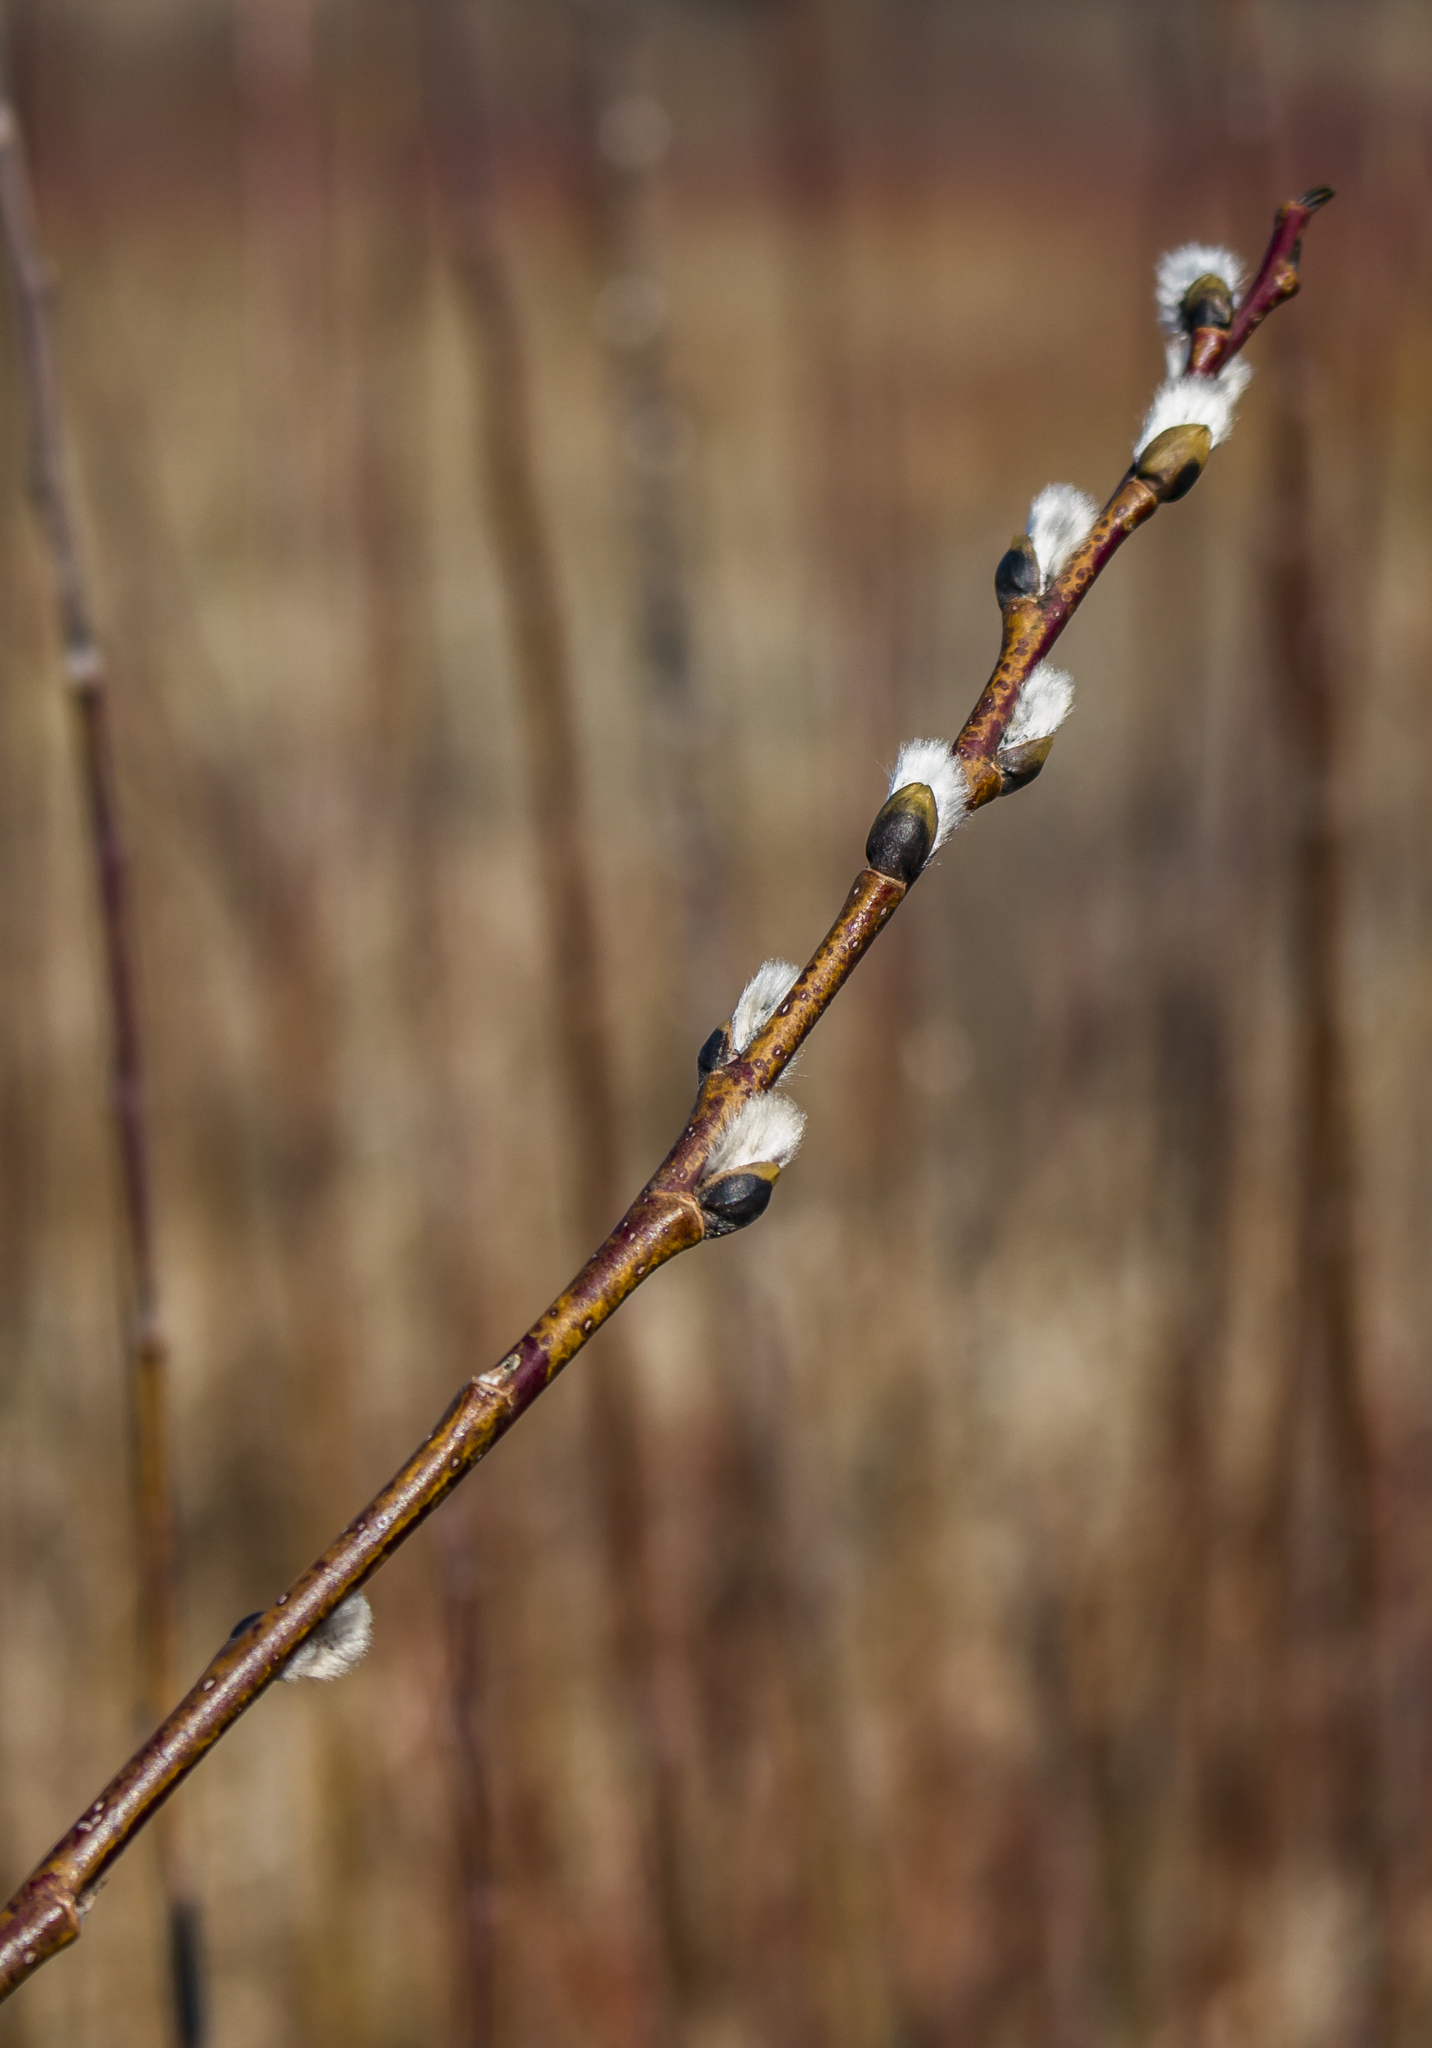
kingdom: Plantae
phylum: Tracheophyta
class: Magnoliopsida
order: Malpighiales
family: Salicaceae
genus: Salix
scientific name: Salix discolor
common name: Glaucous willow
